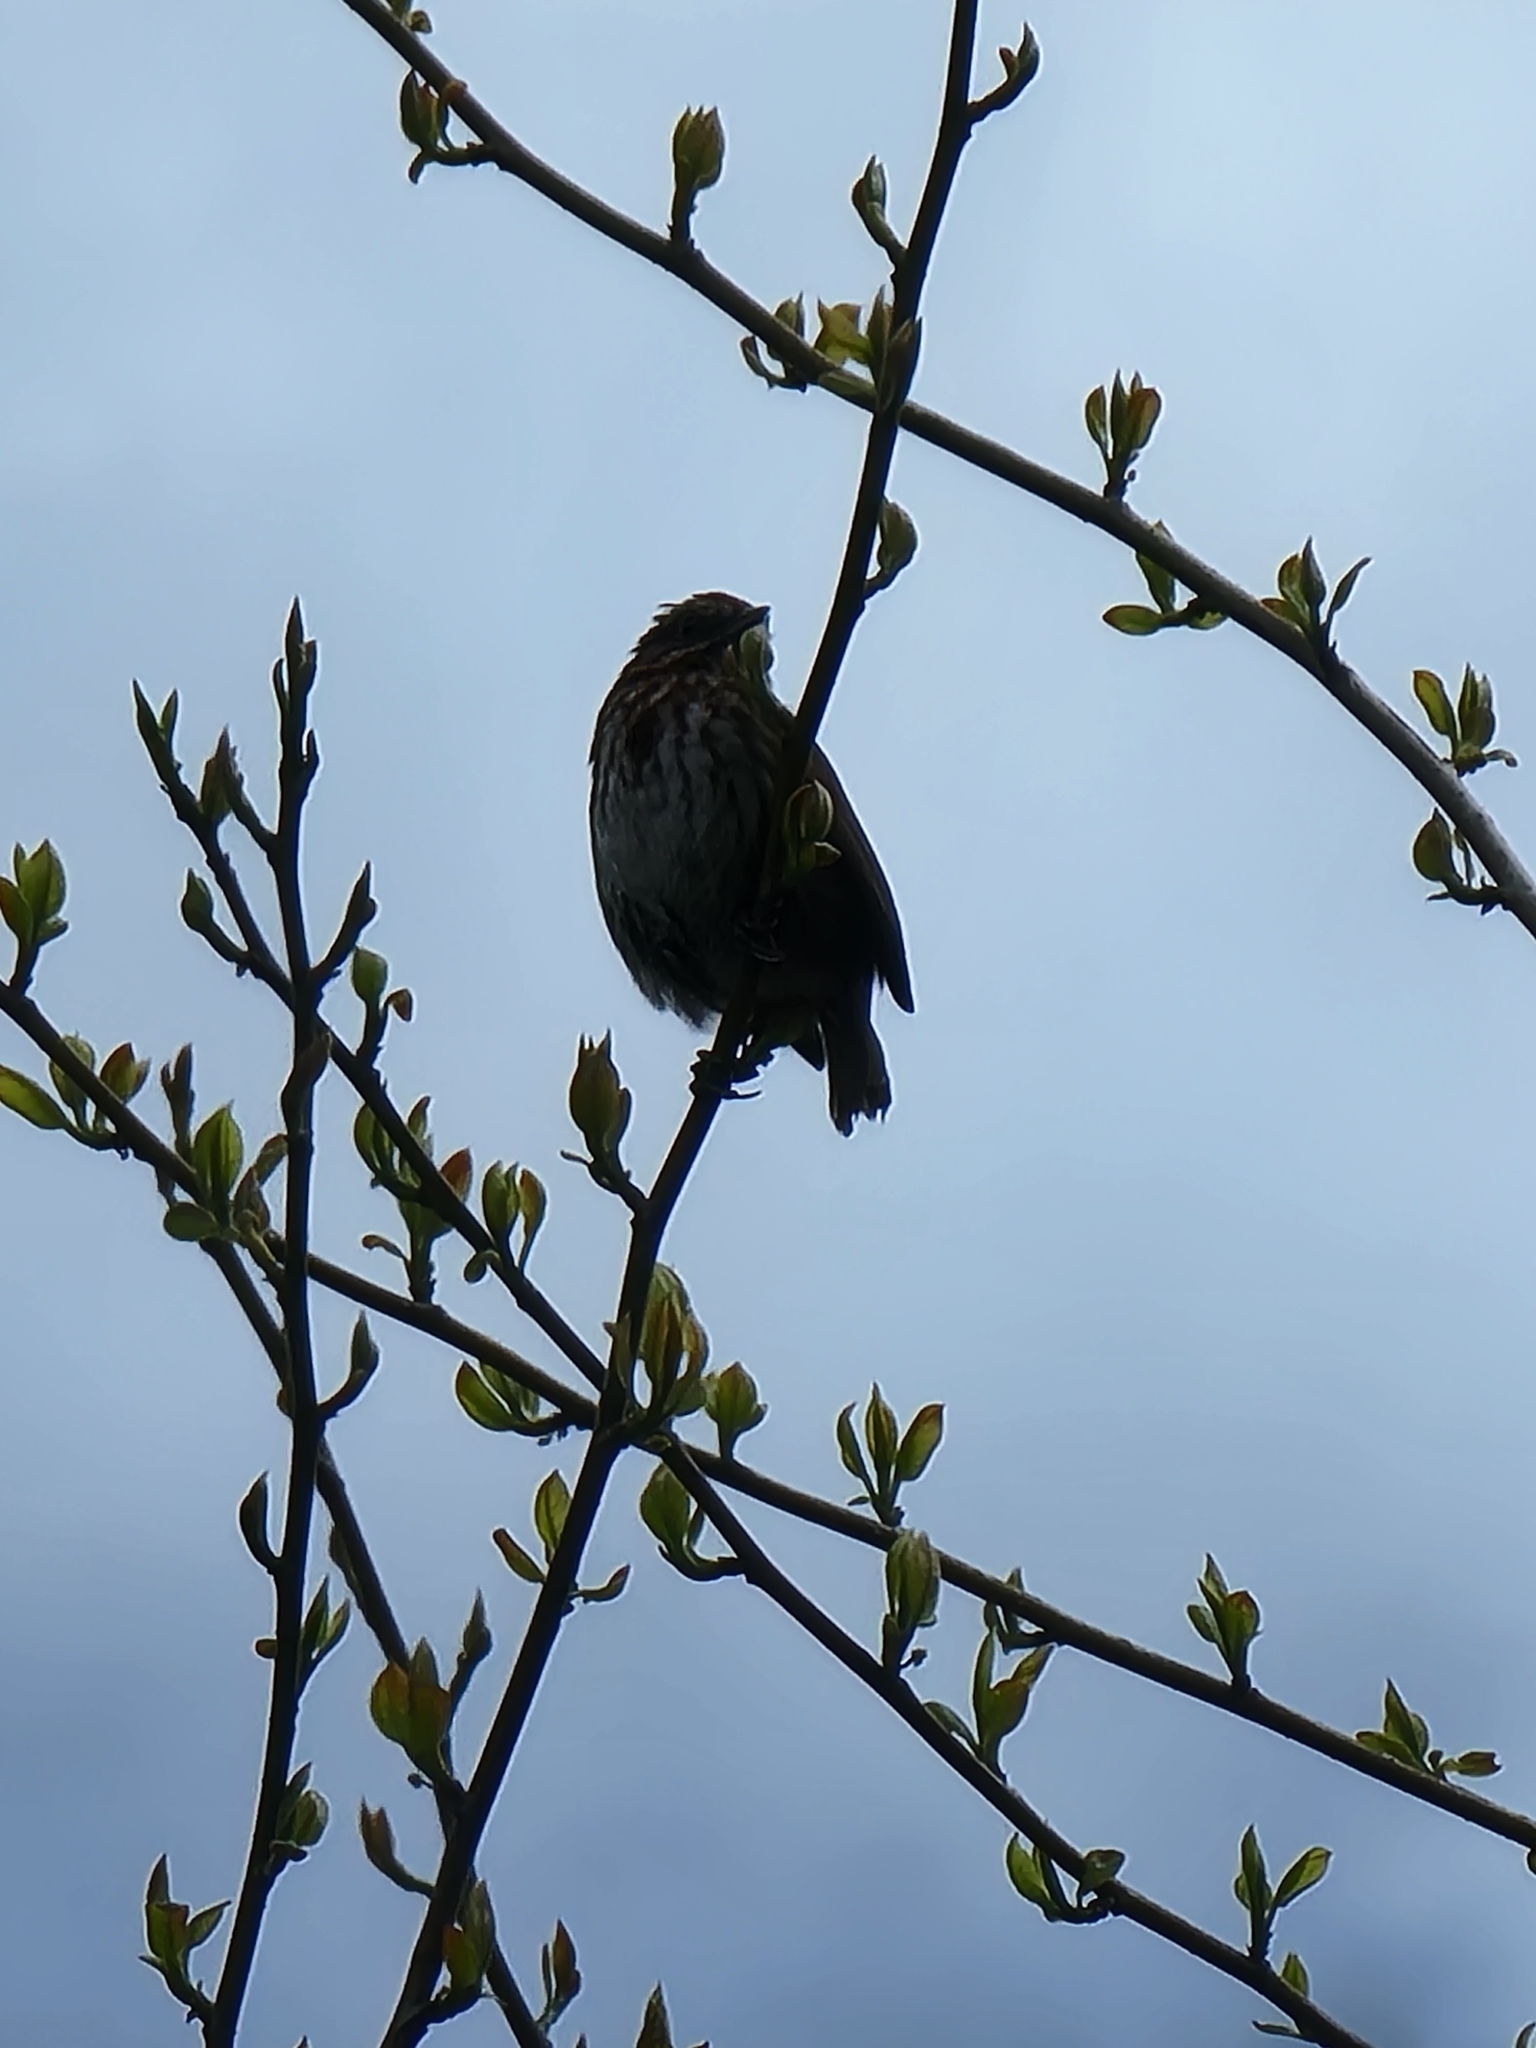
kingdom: Animalia
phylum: Chordata
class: Aves
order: Passeriformes
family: Passerellidae
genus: Melospiza
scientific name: Melospiza melodia
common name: Song sparrow
